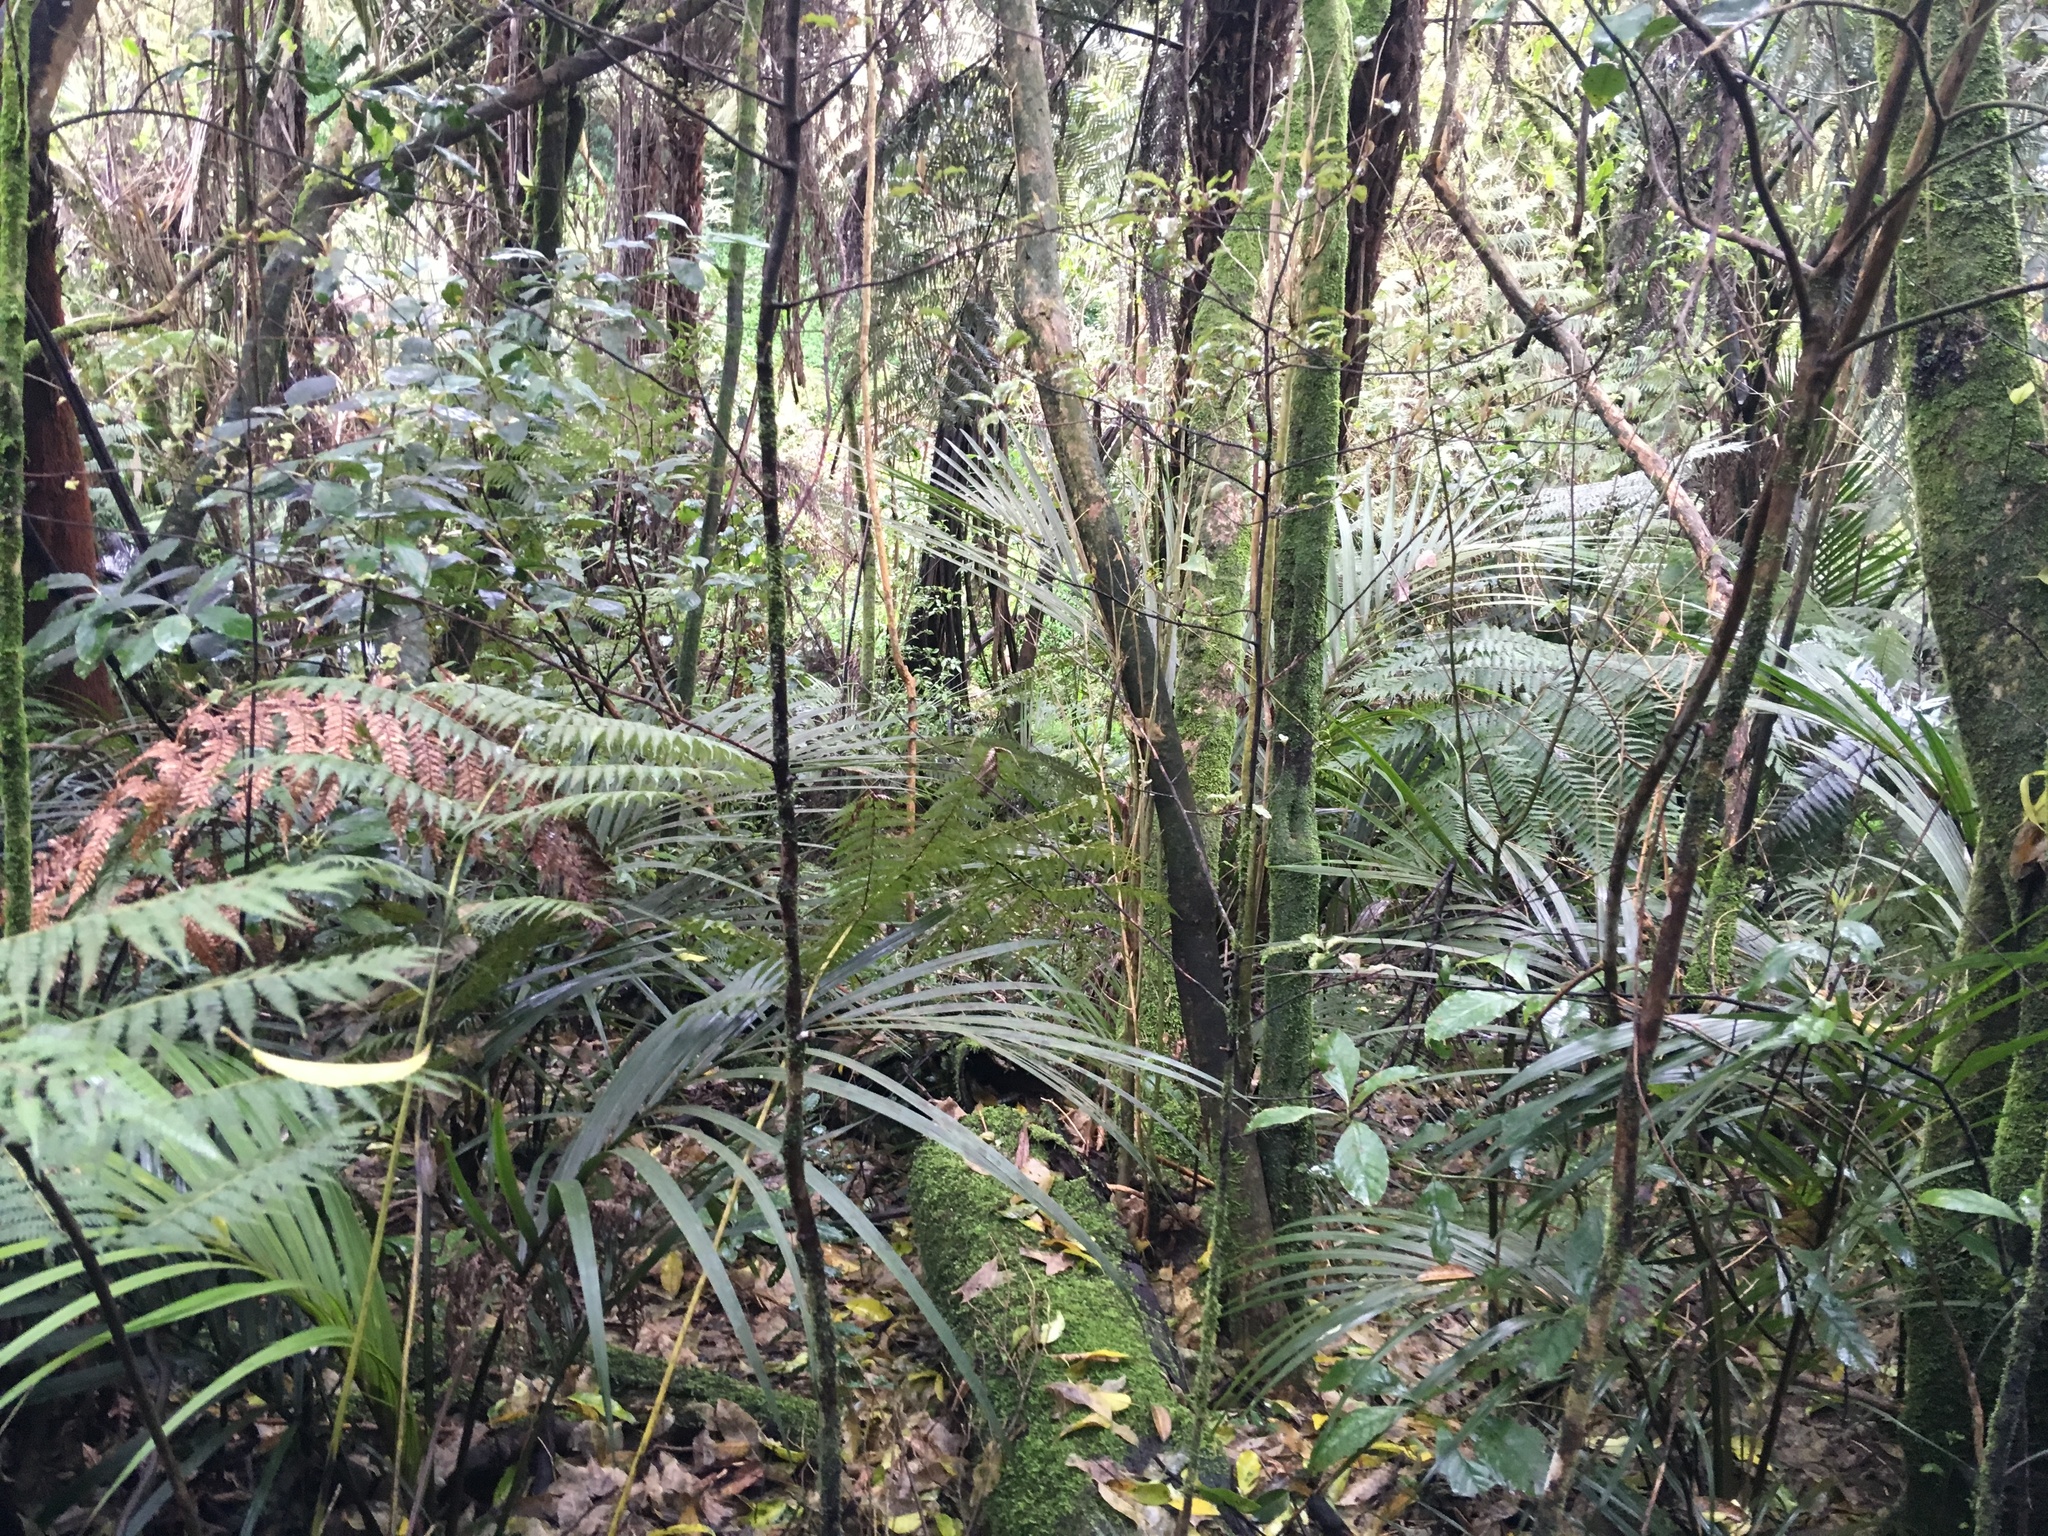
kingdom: Plantae
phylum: Tracheophyta
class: Liliopsida
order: Arecales
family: Arecaceae
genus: Rhopalostylis
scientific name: Rhopalostylis sapida
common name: Feather-duster palm
